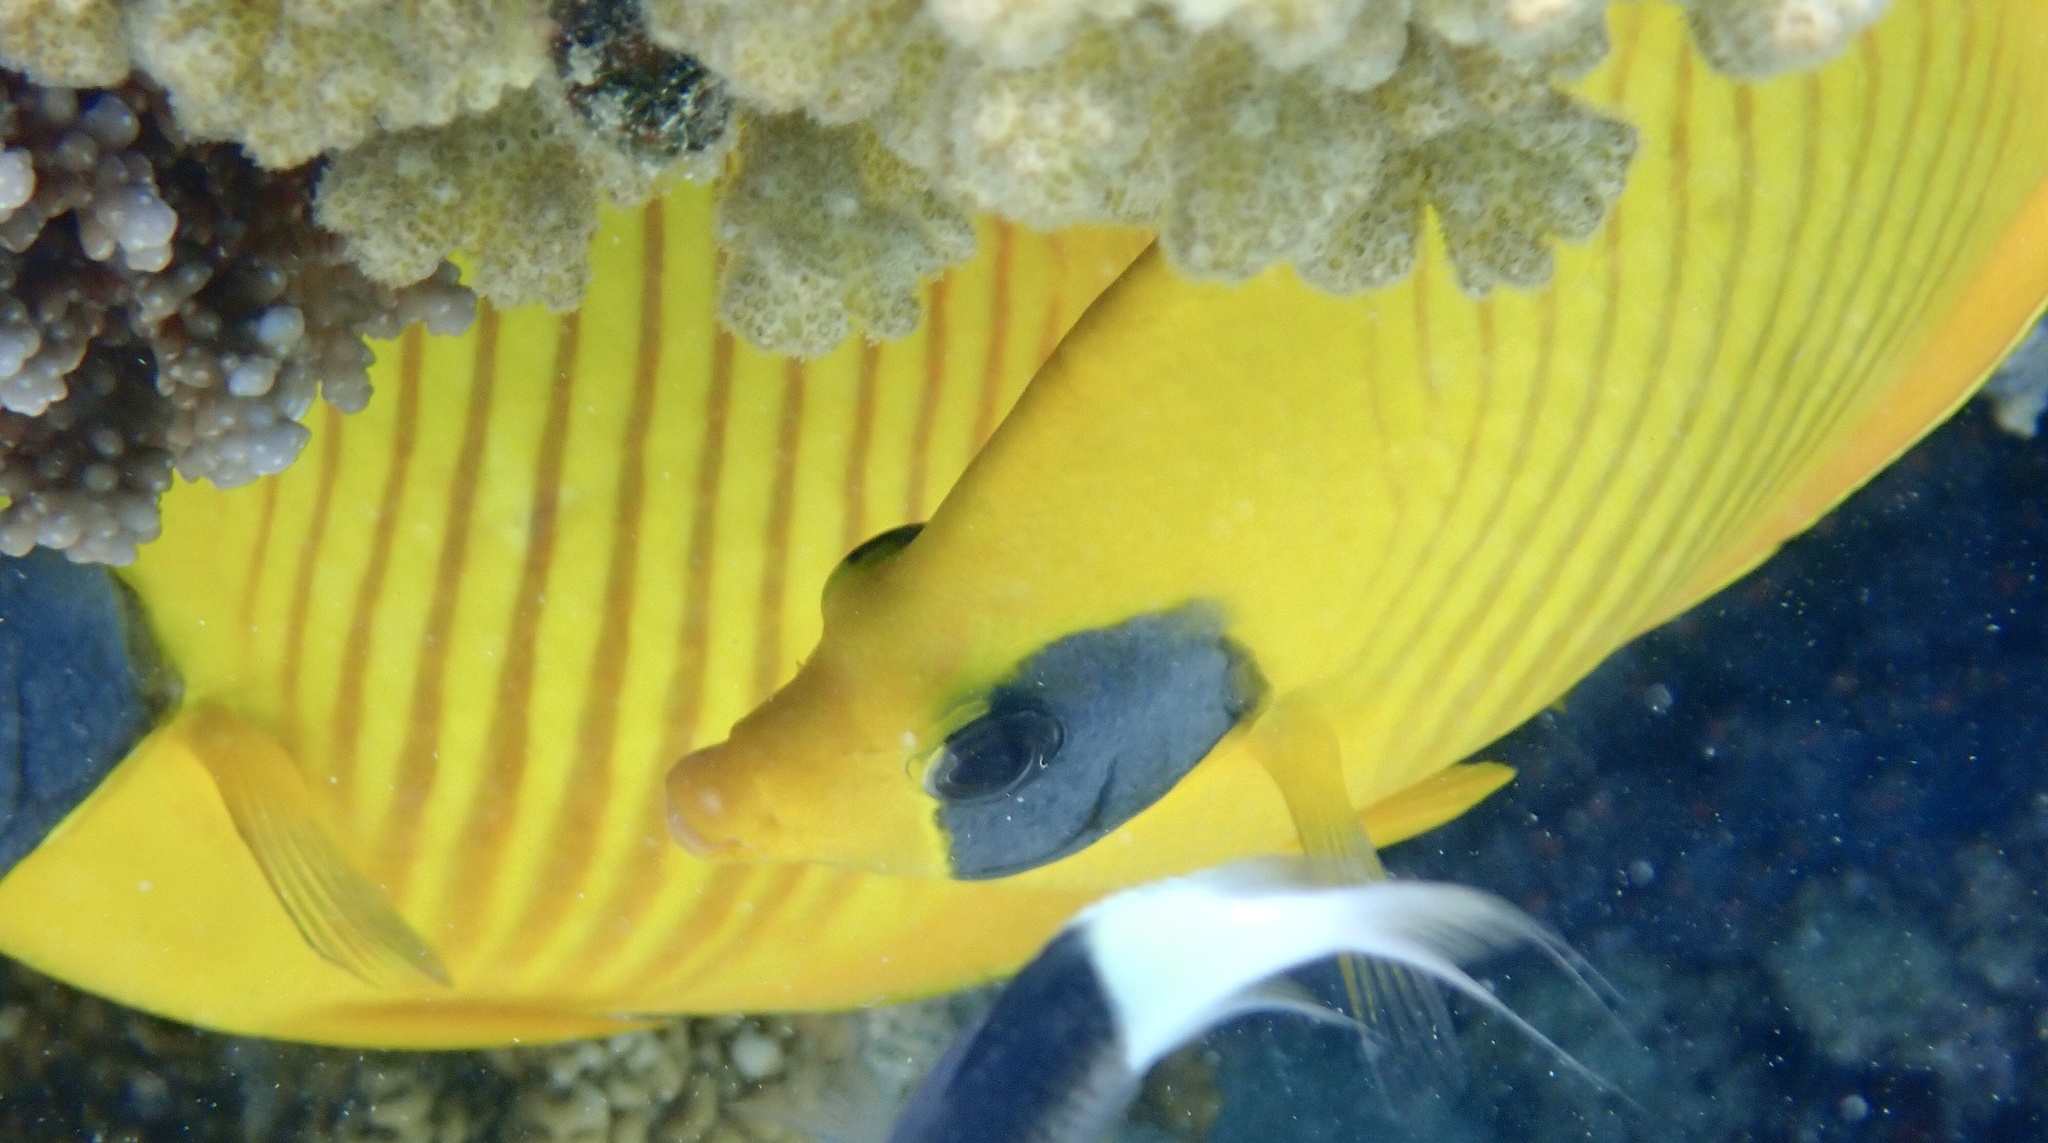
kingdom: Animalia
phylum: Chordata
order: Perciformes
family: Chaetodontidae
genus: Chaetodon
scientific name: Chaetodon semilarvatus
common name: Golden butterflyfish
